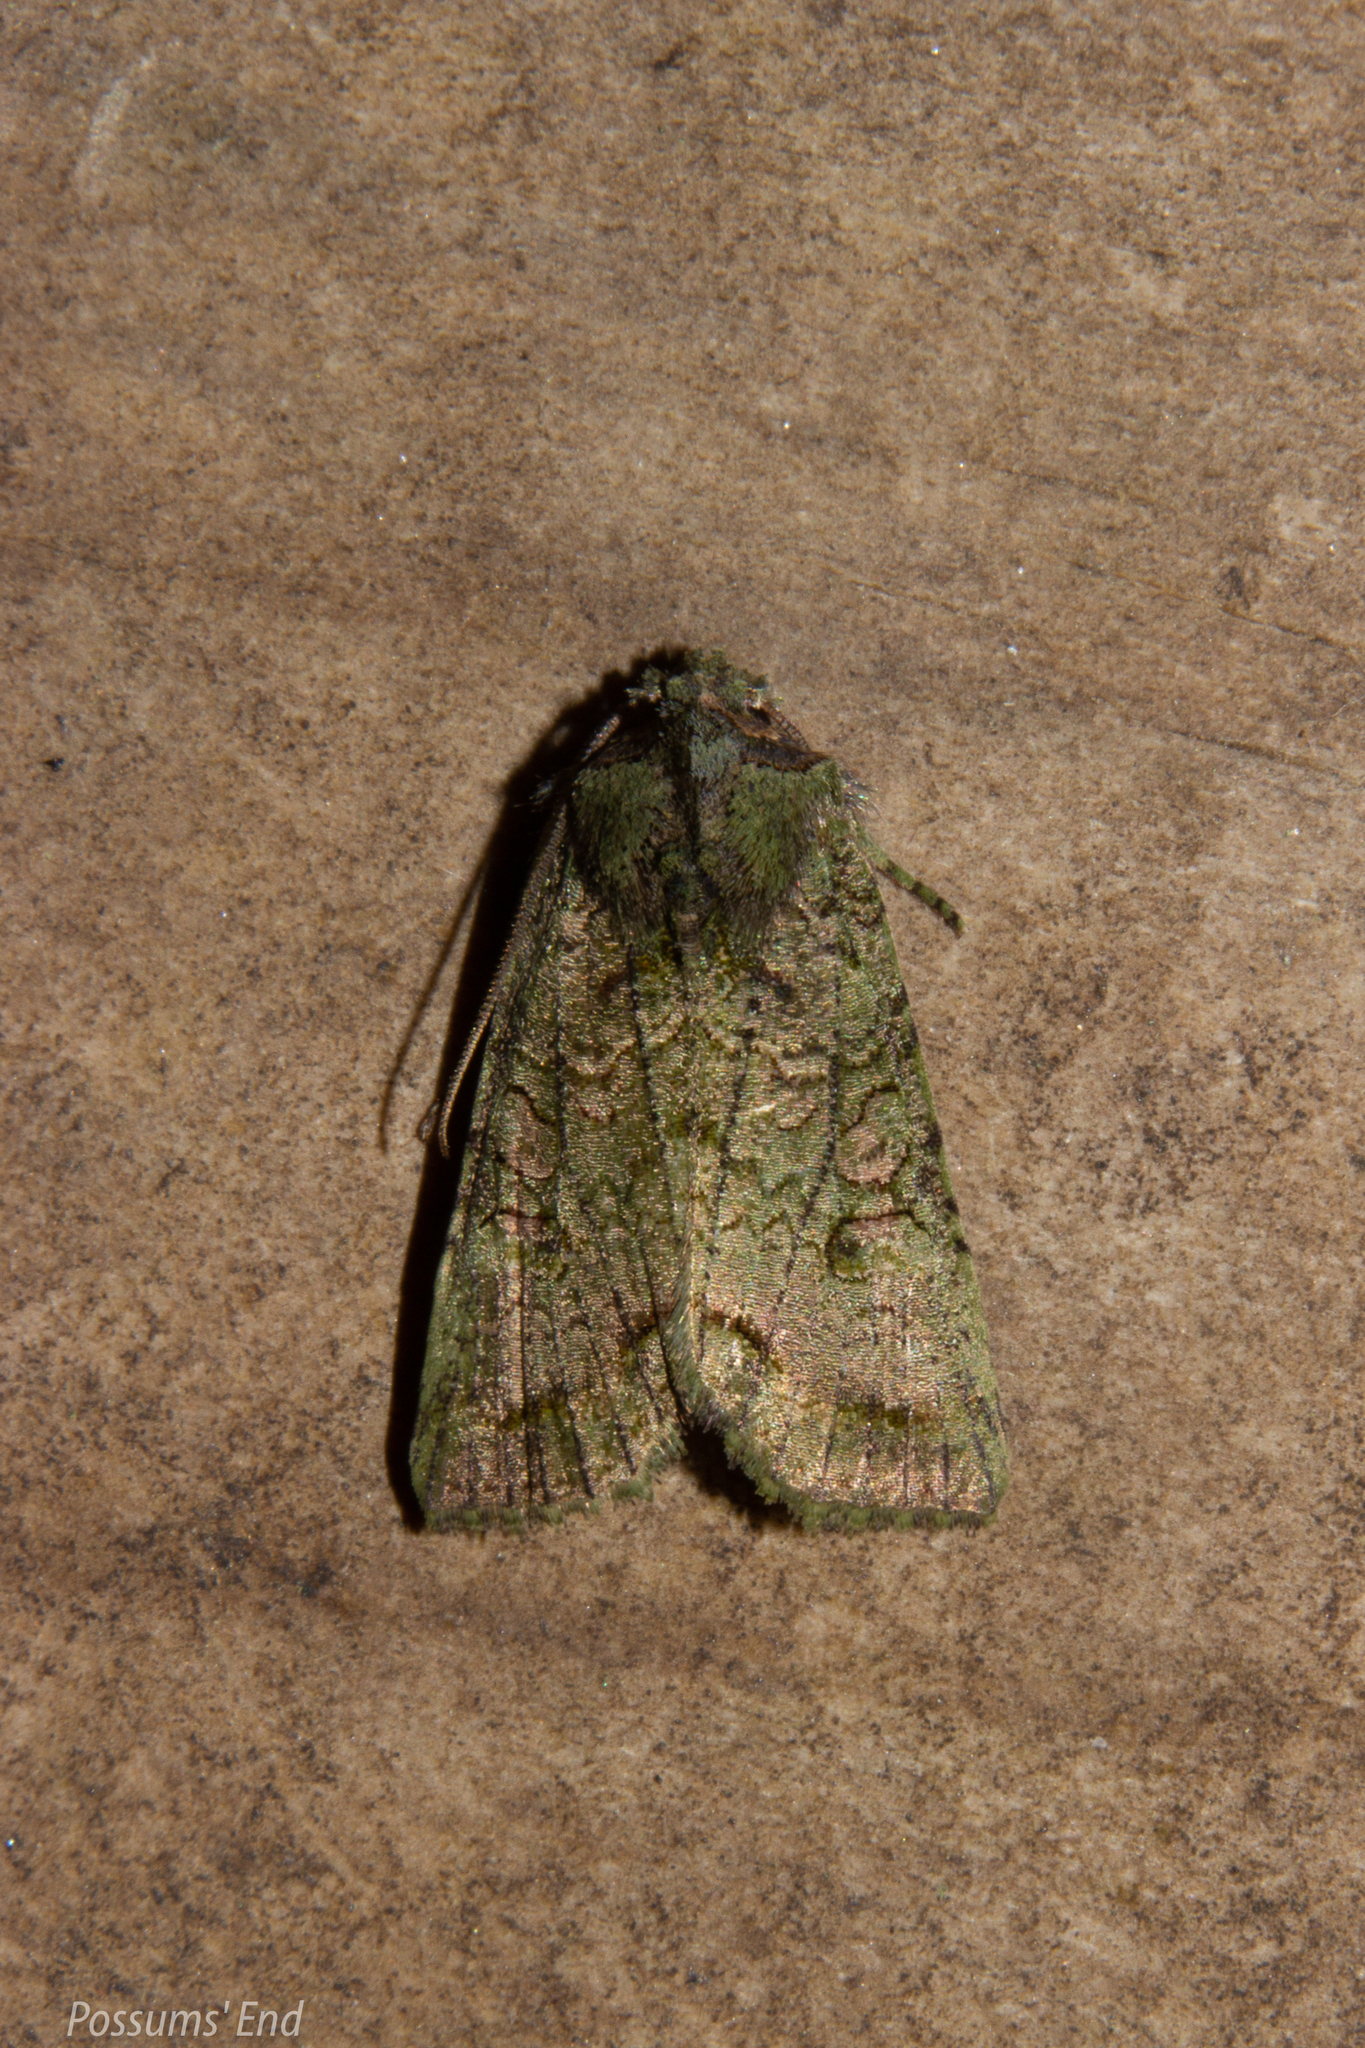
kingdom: Animalia
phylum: Arthropoda
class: Insecta
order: Lepidoptera
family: Noctuidae
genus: Meterana
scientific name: Meterana levis
